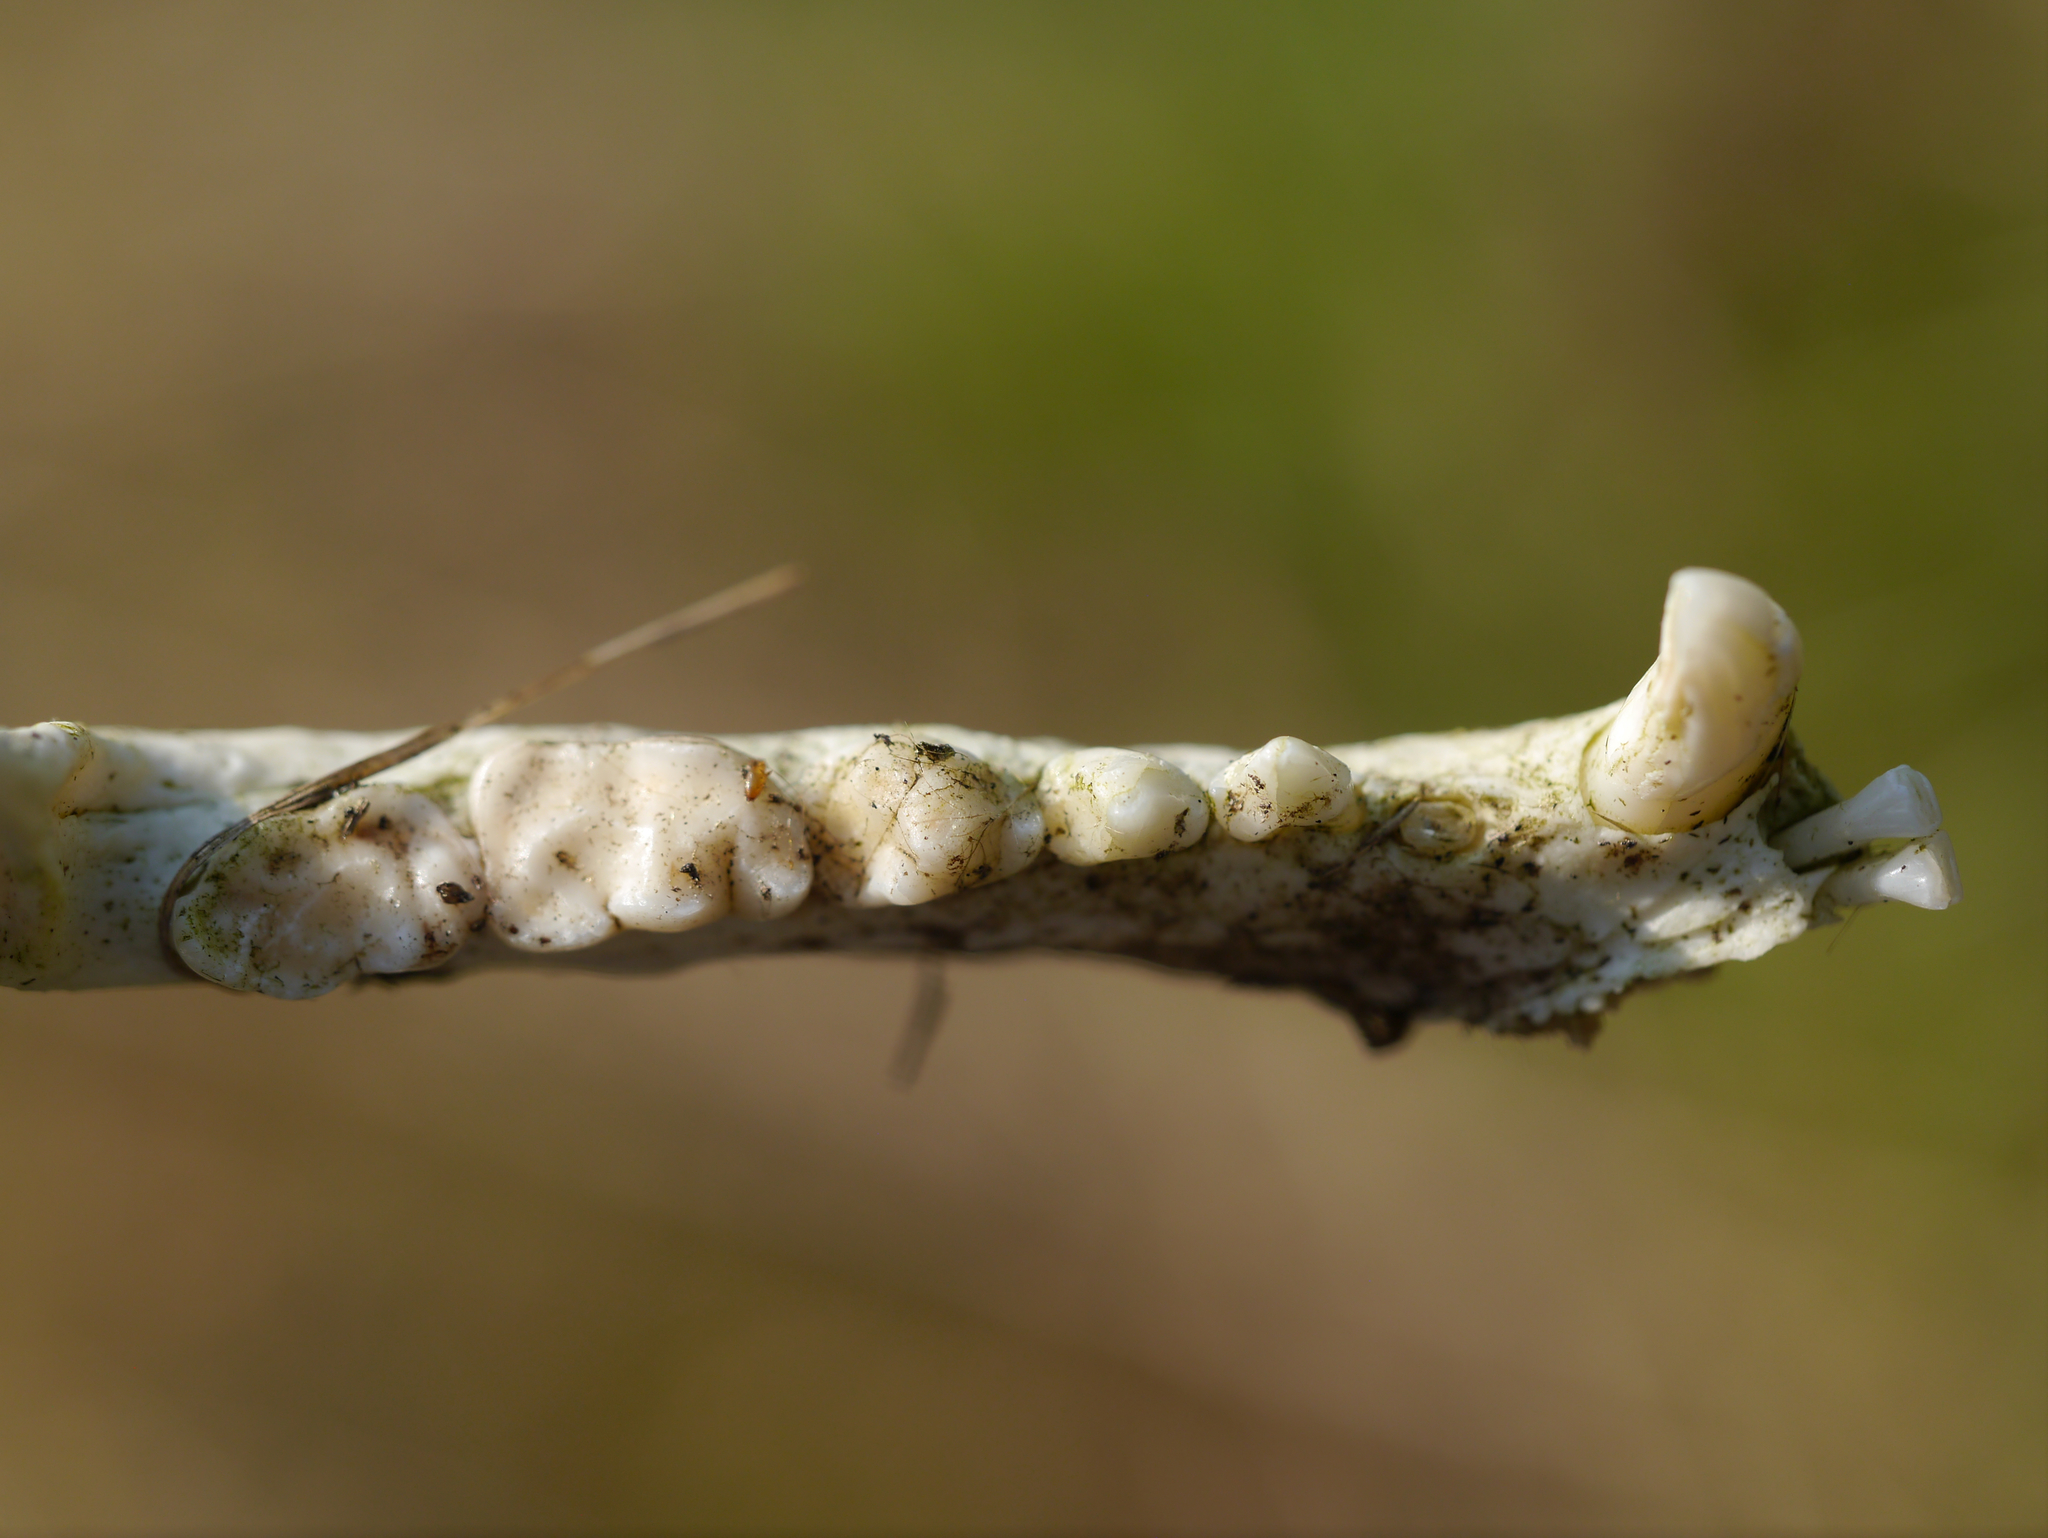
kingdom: Animalia
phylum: Chordata
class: Mammalia
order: Carnivora
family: Procyonidae
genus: Procyon
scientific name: Procyon lotor
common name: Raccoon
